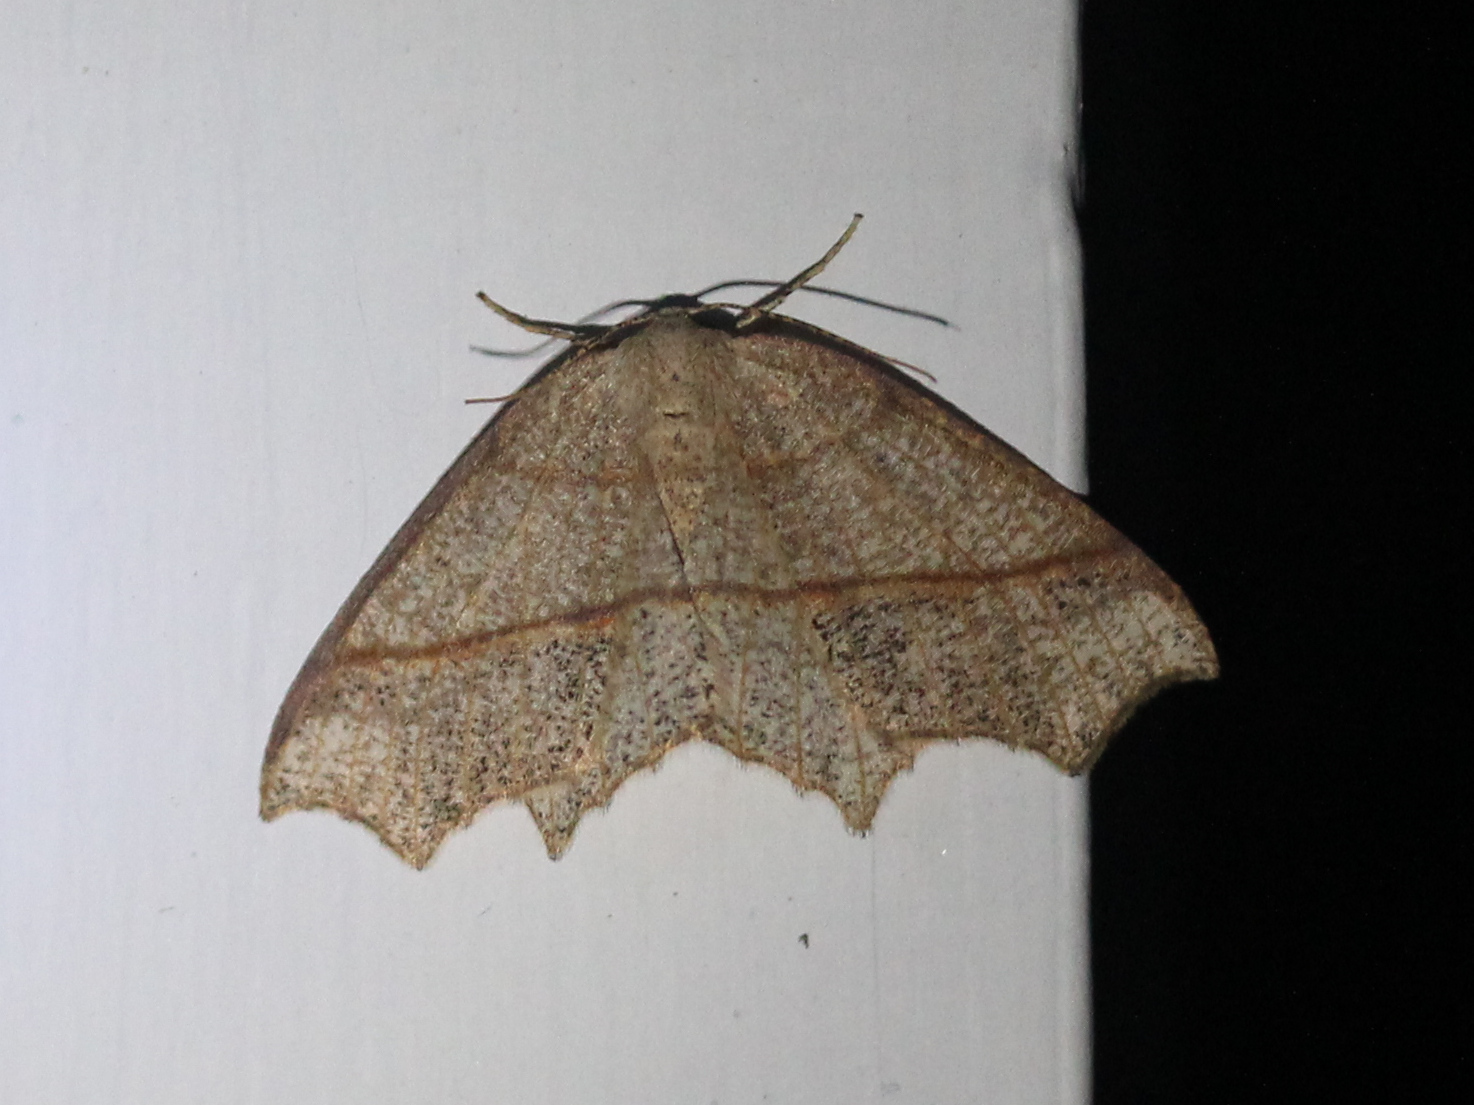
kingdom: Animalia
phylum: Arthropoda
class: Insecta
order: Lepidoptera
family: Geometridae
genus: Besma
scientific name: Besma quercivoraria
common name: Oak besma
